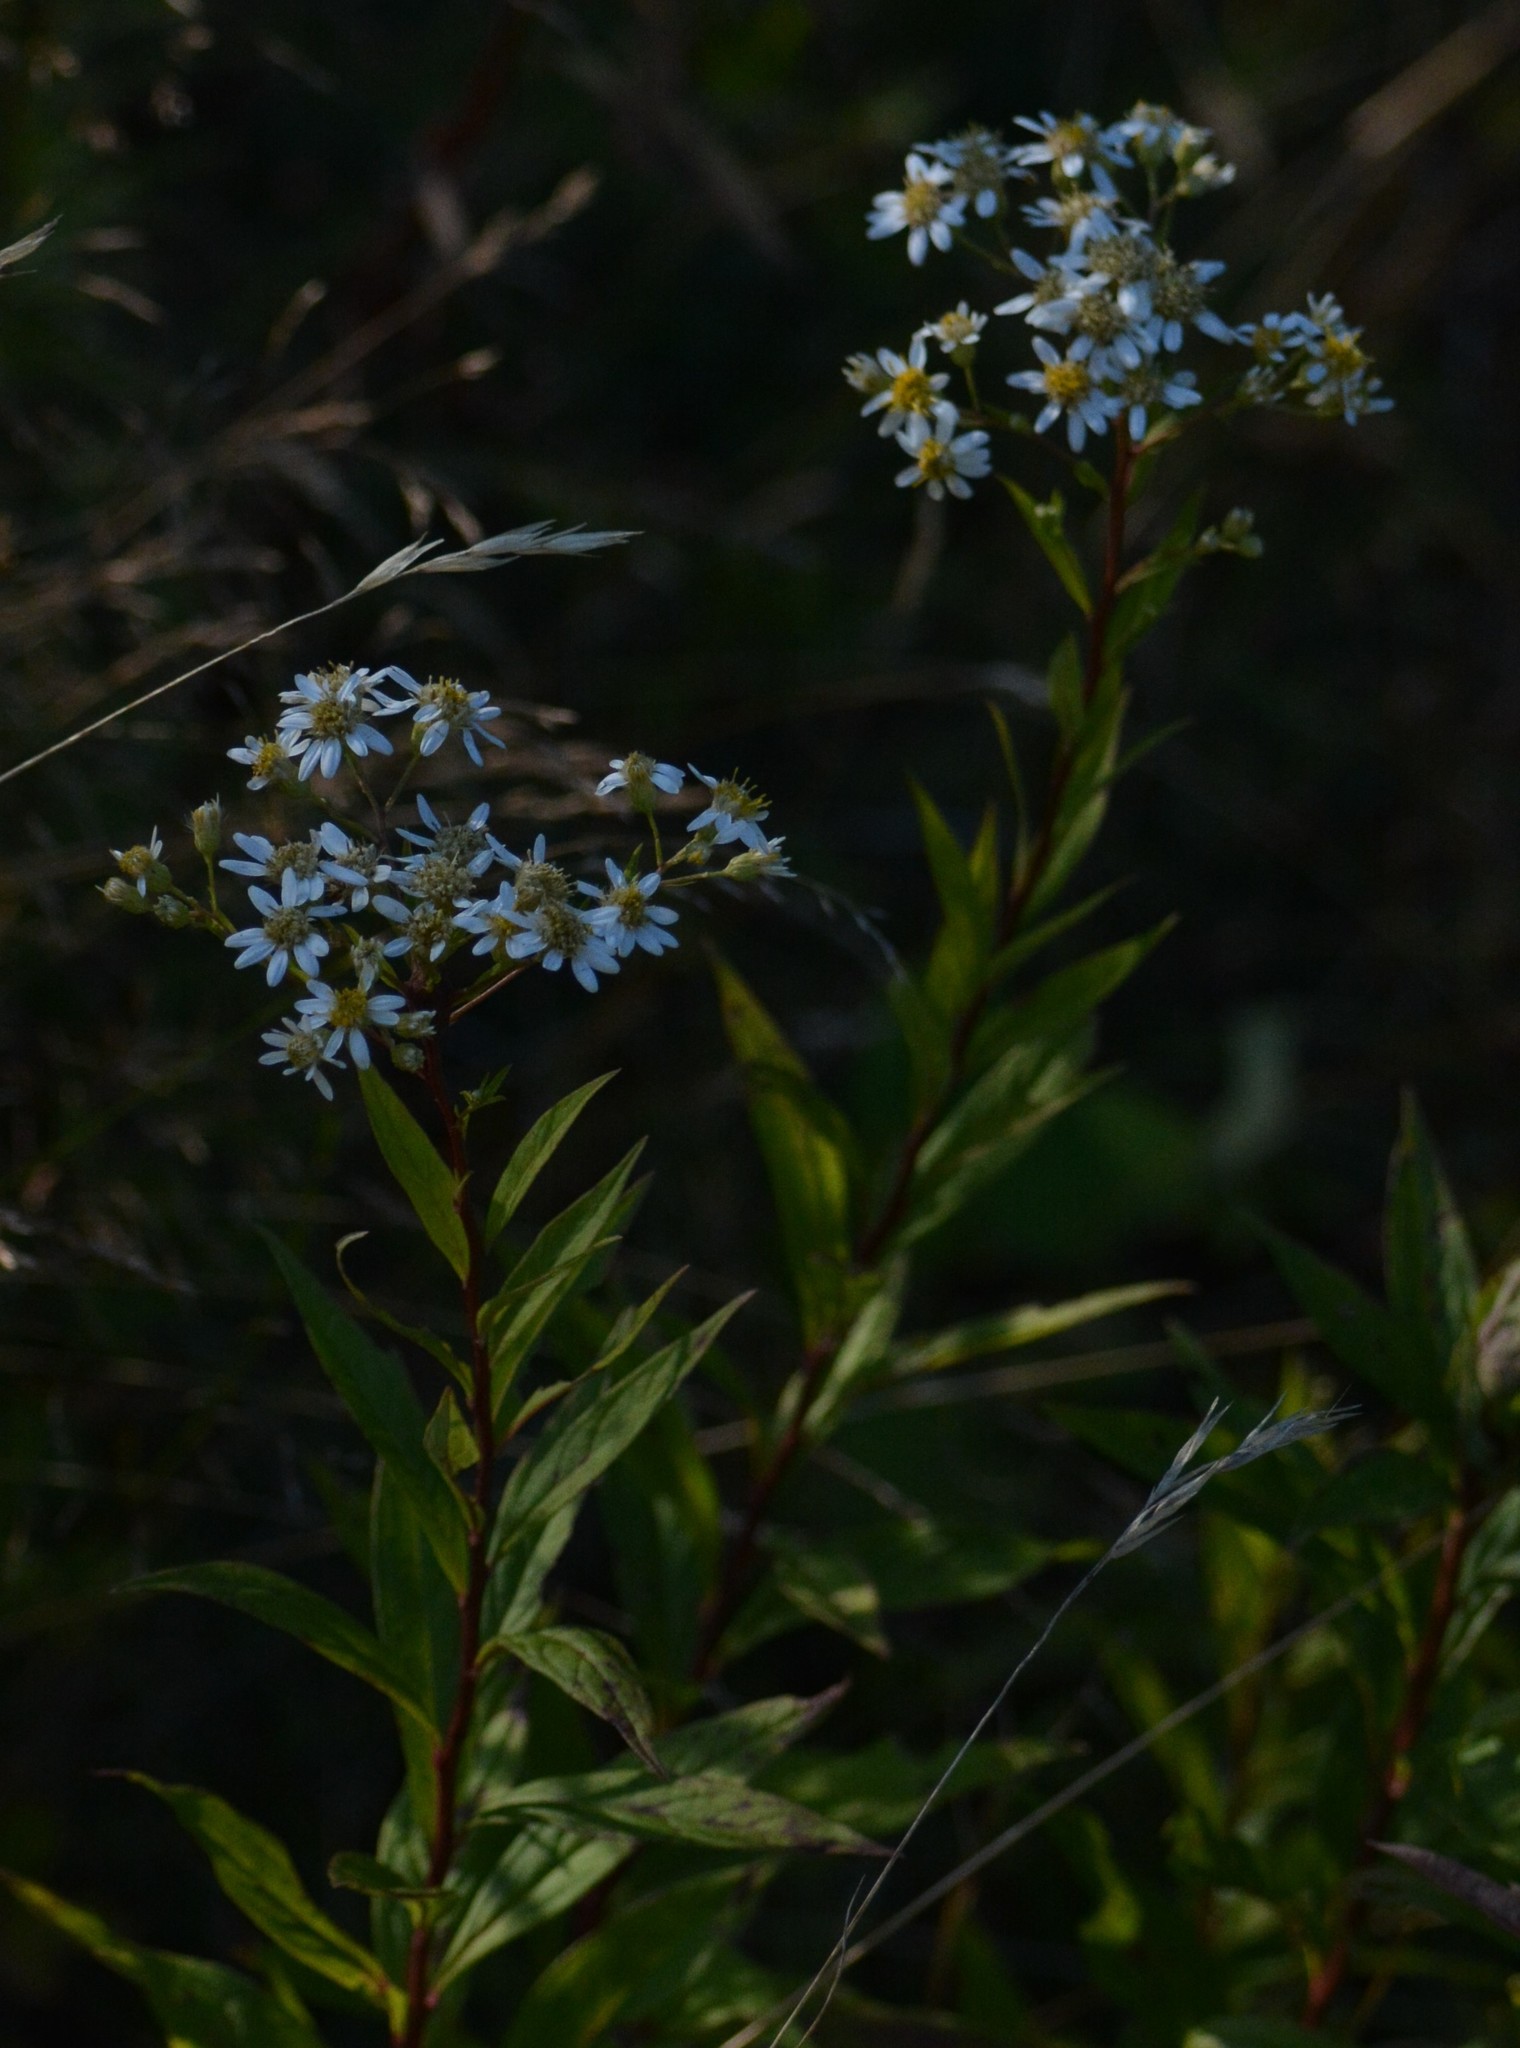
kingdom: Plantae
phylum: Tracheophyta
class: Magnoliopsida
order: Asterales
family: Asteraceae
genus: Doellingeria
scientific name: Doellingeria umbellata
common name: Flat-top white aster
